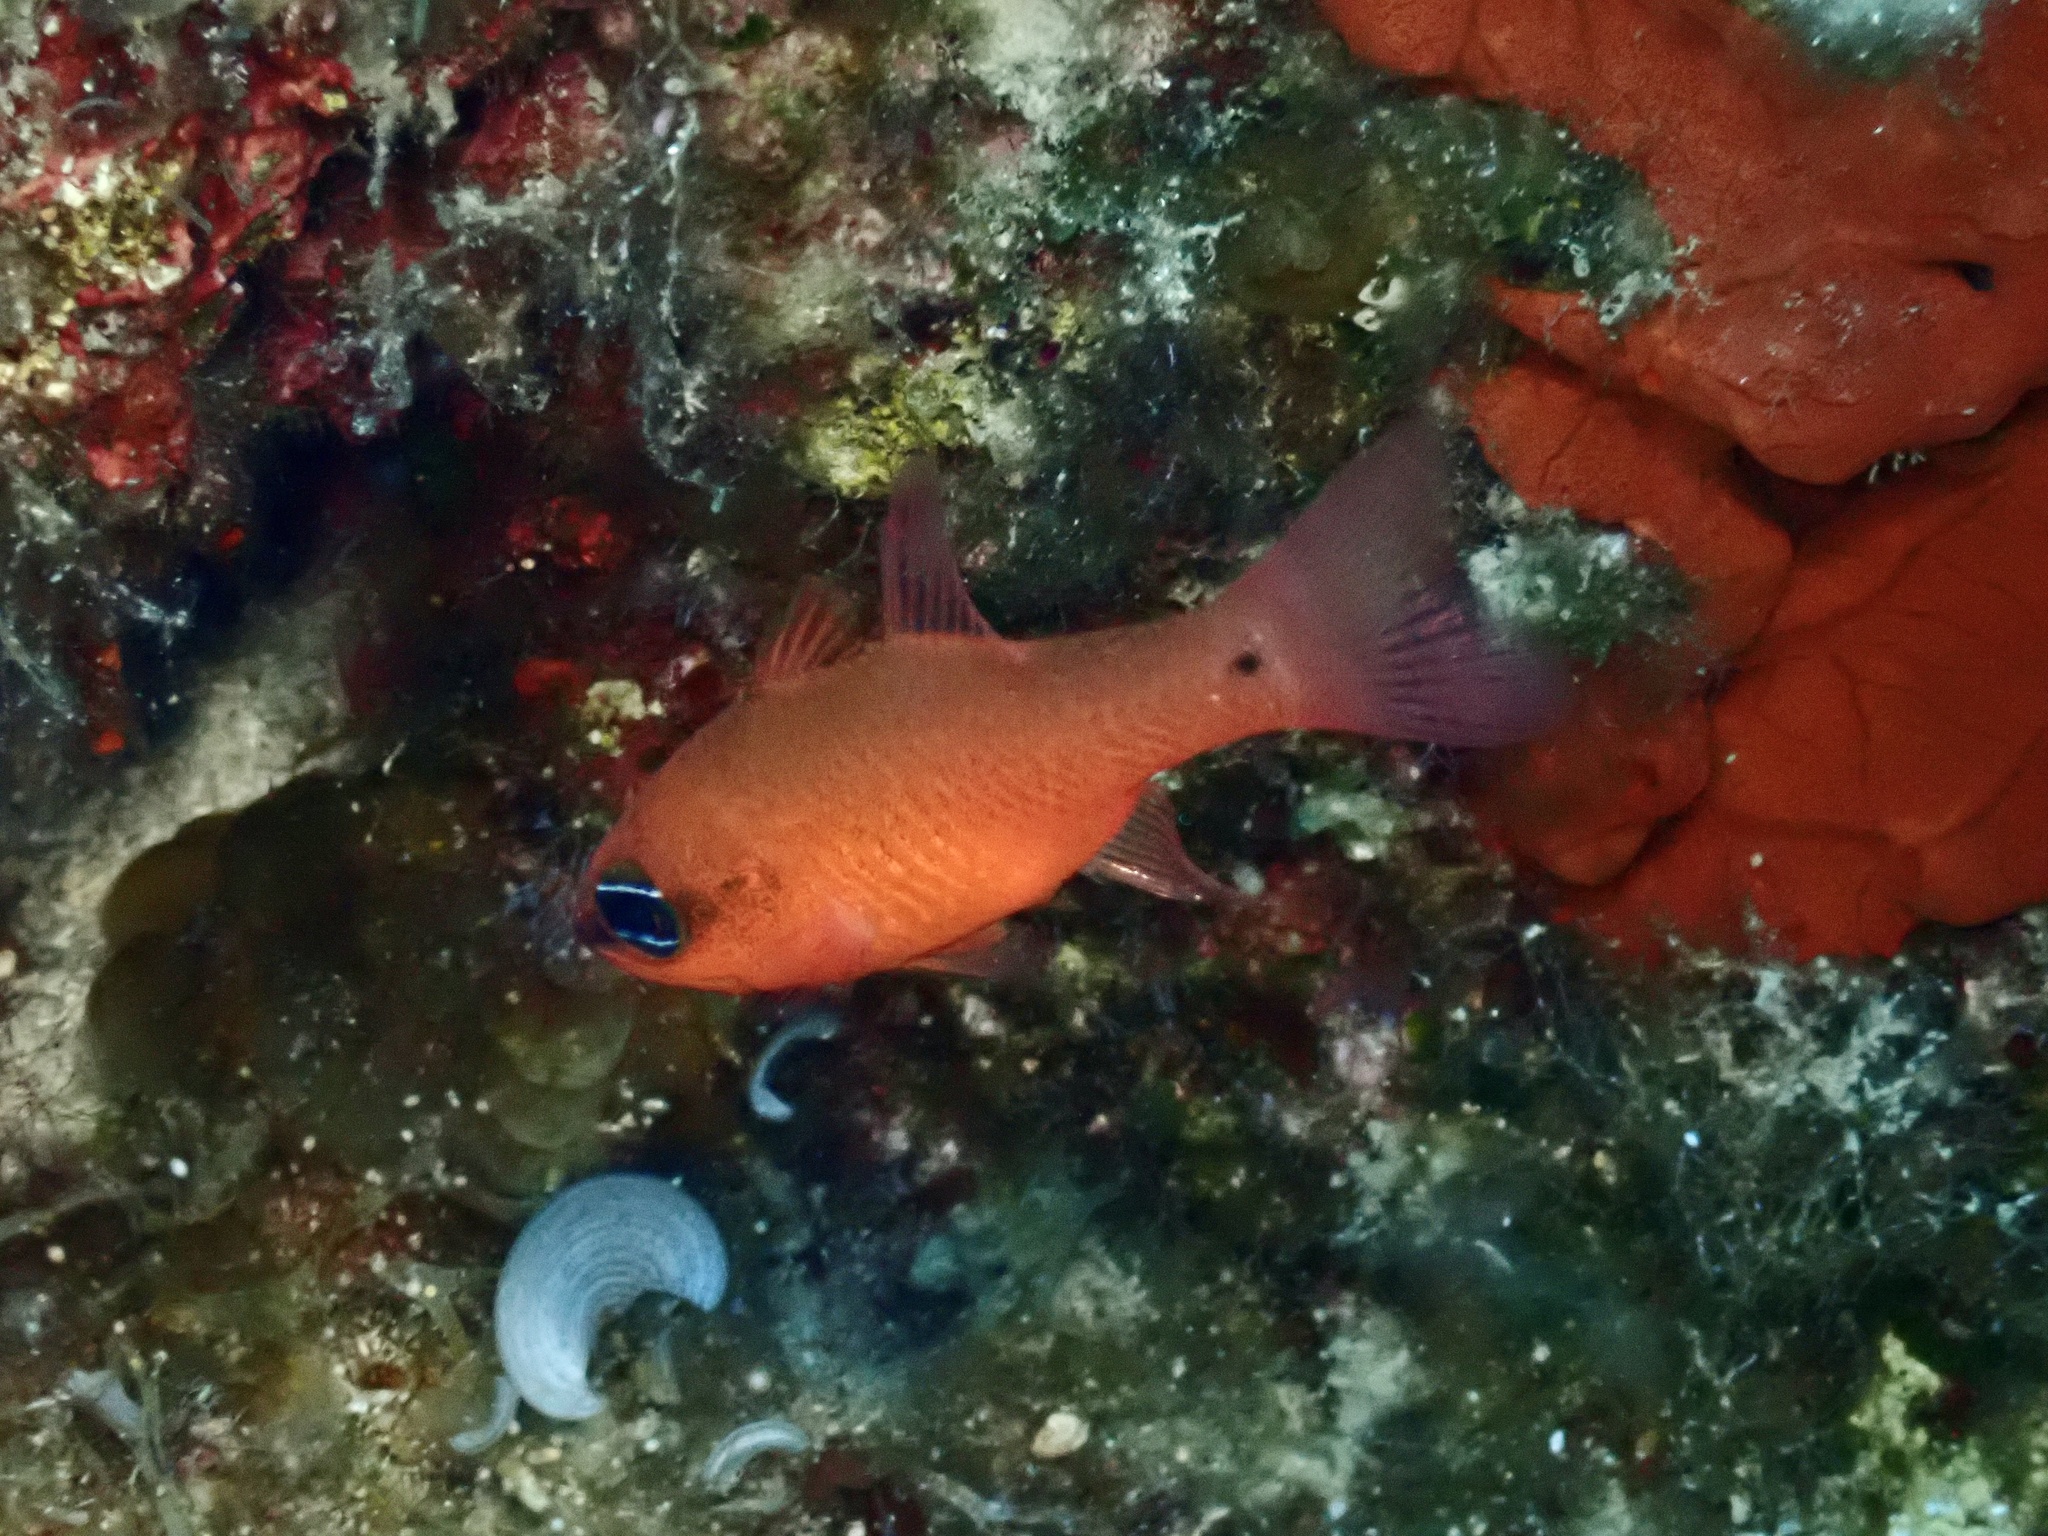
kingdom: Animalia
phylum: Chordata
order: Perciformes
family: Apogonidae
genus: Apogon
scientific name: Apogon imberbis
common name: Cardinal fish
